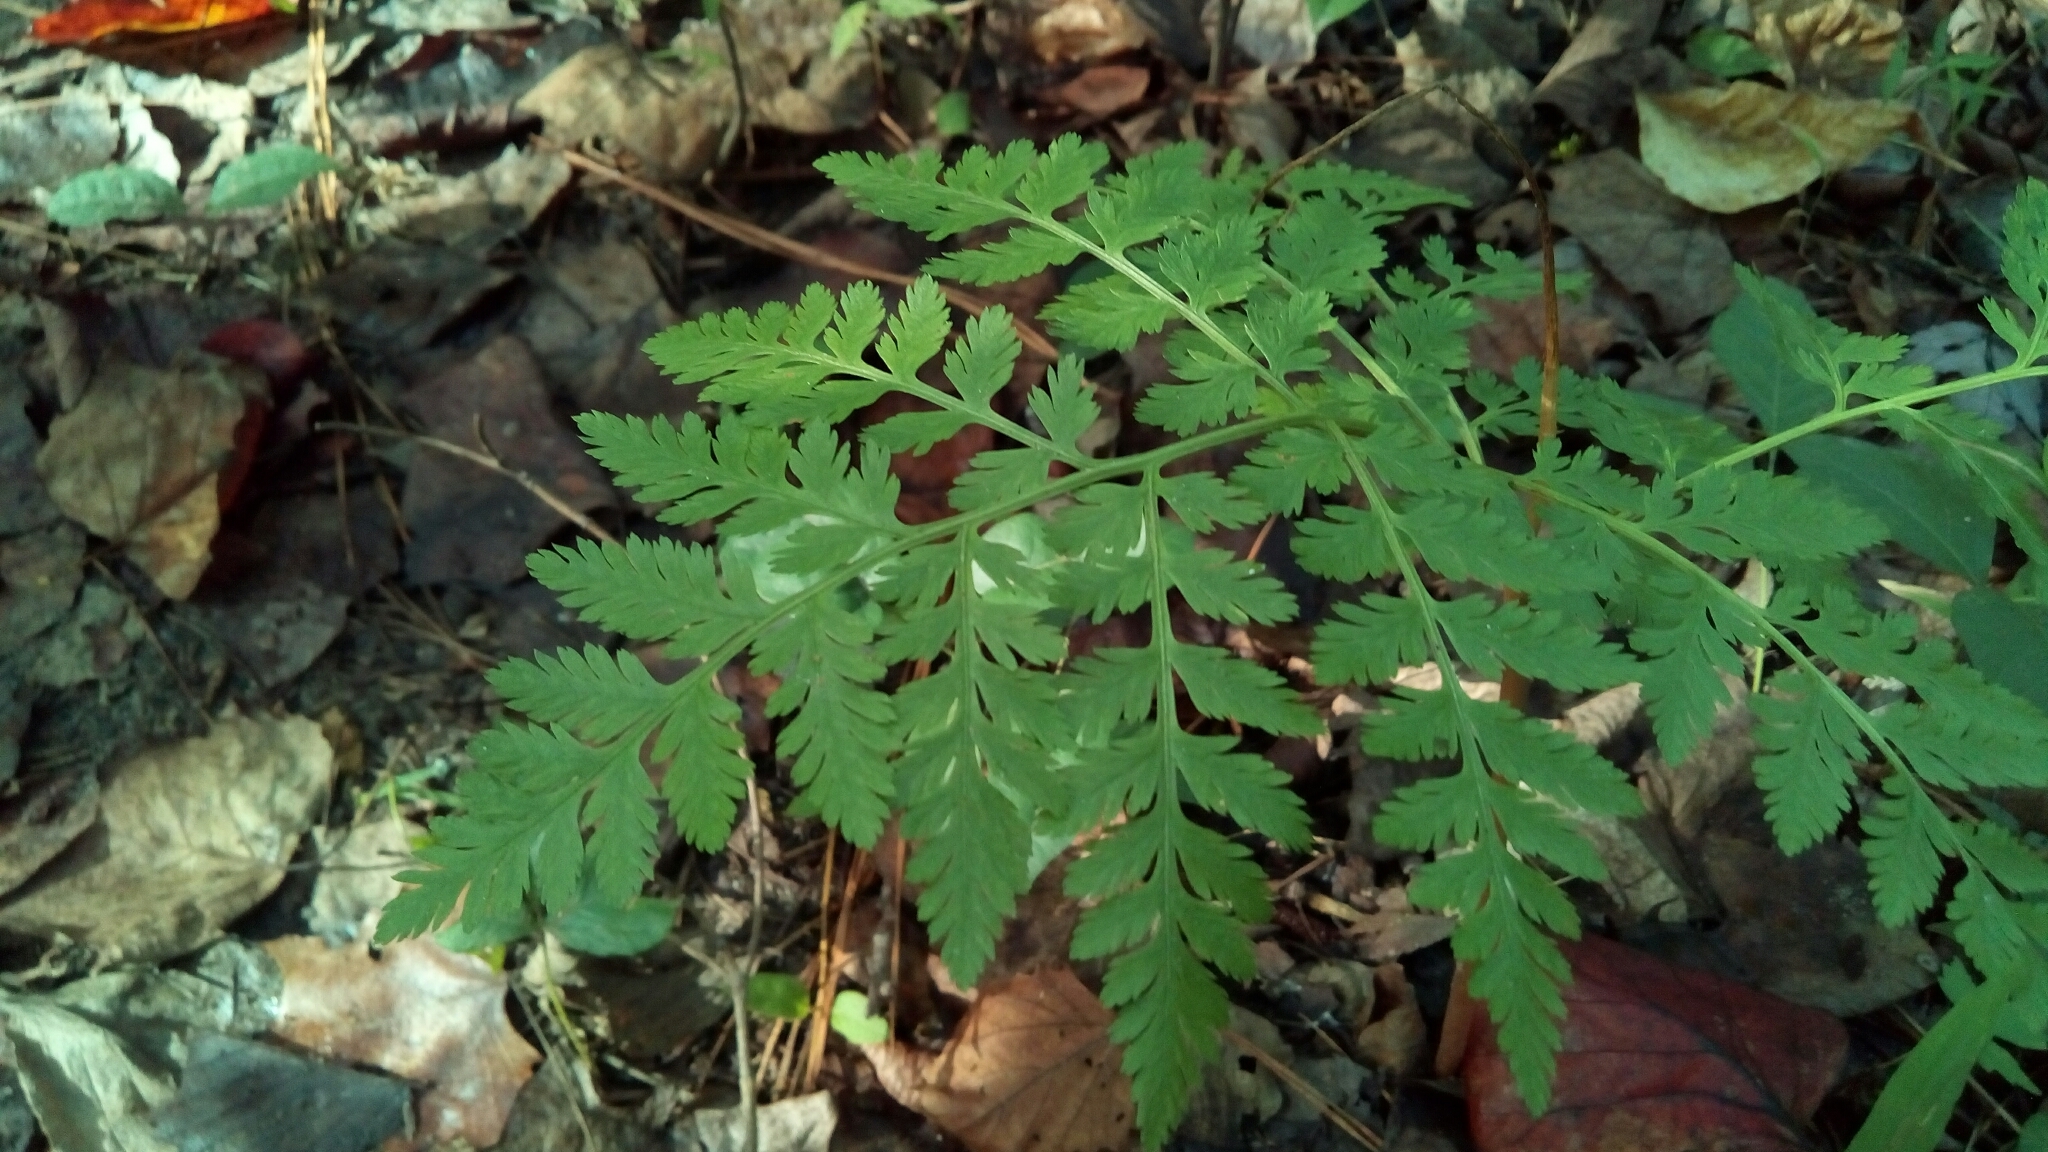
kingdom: Plantae
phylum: Tracheophyta
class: Polypodiopsida
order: Ophioglossales
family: Ophioglossaceae
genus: Botrypus
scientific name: Botrypus virginianus
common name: Common grapefern
